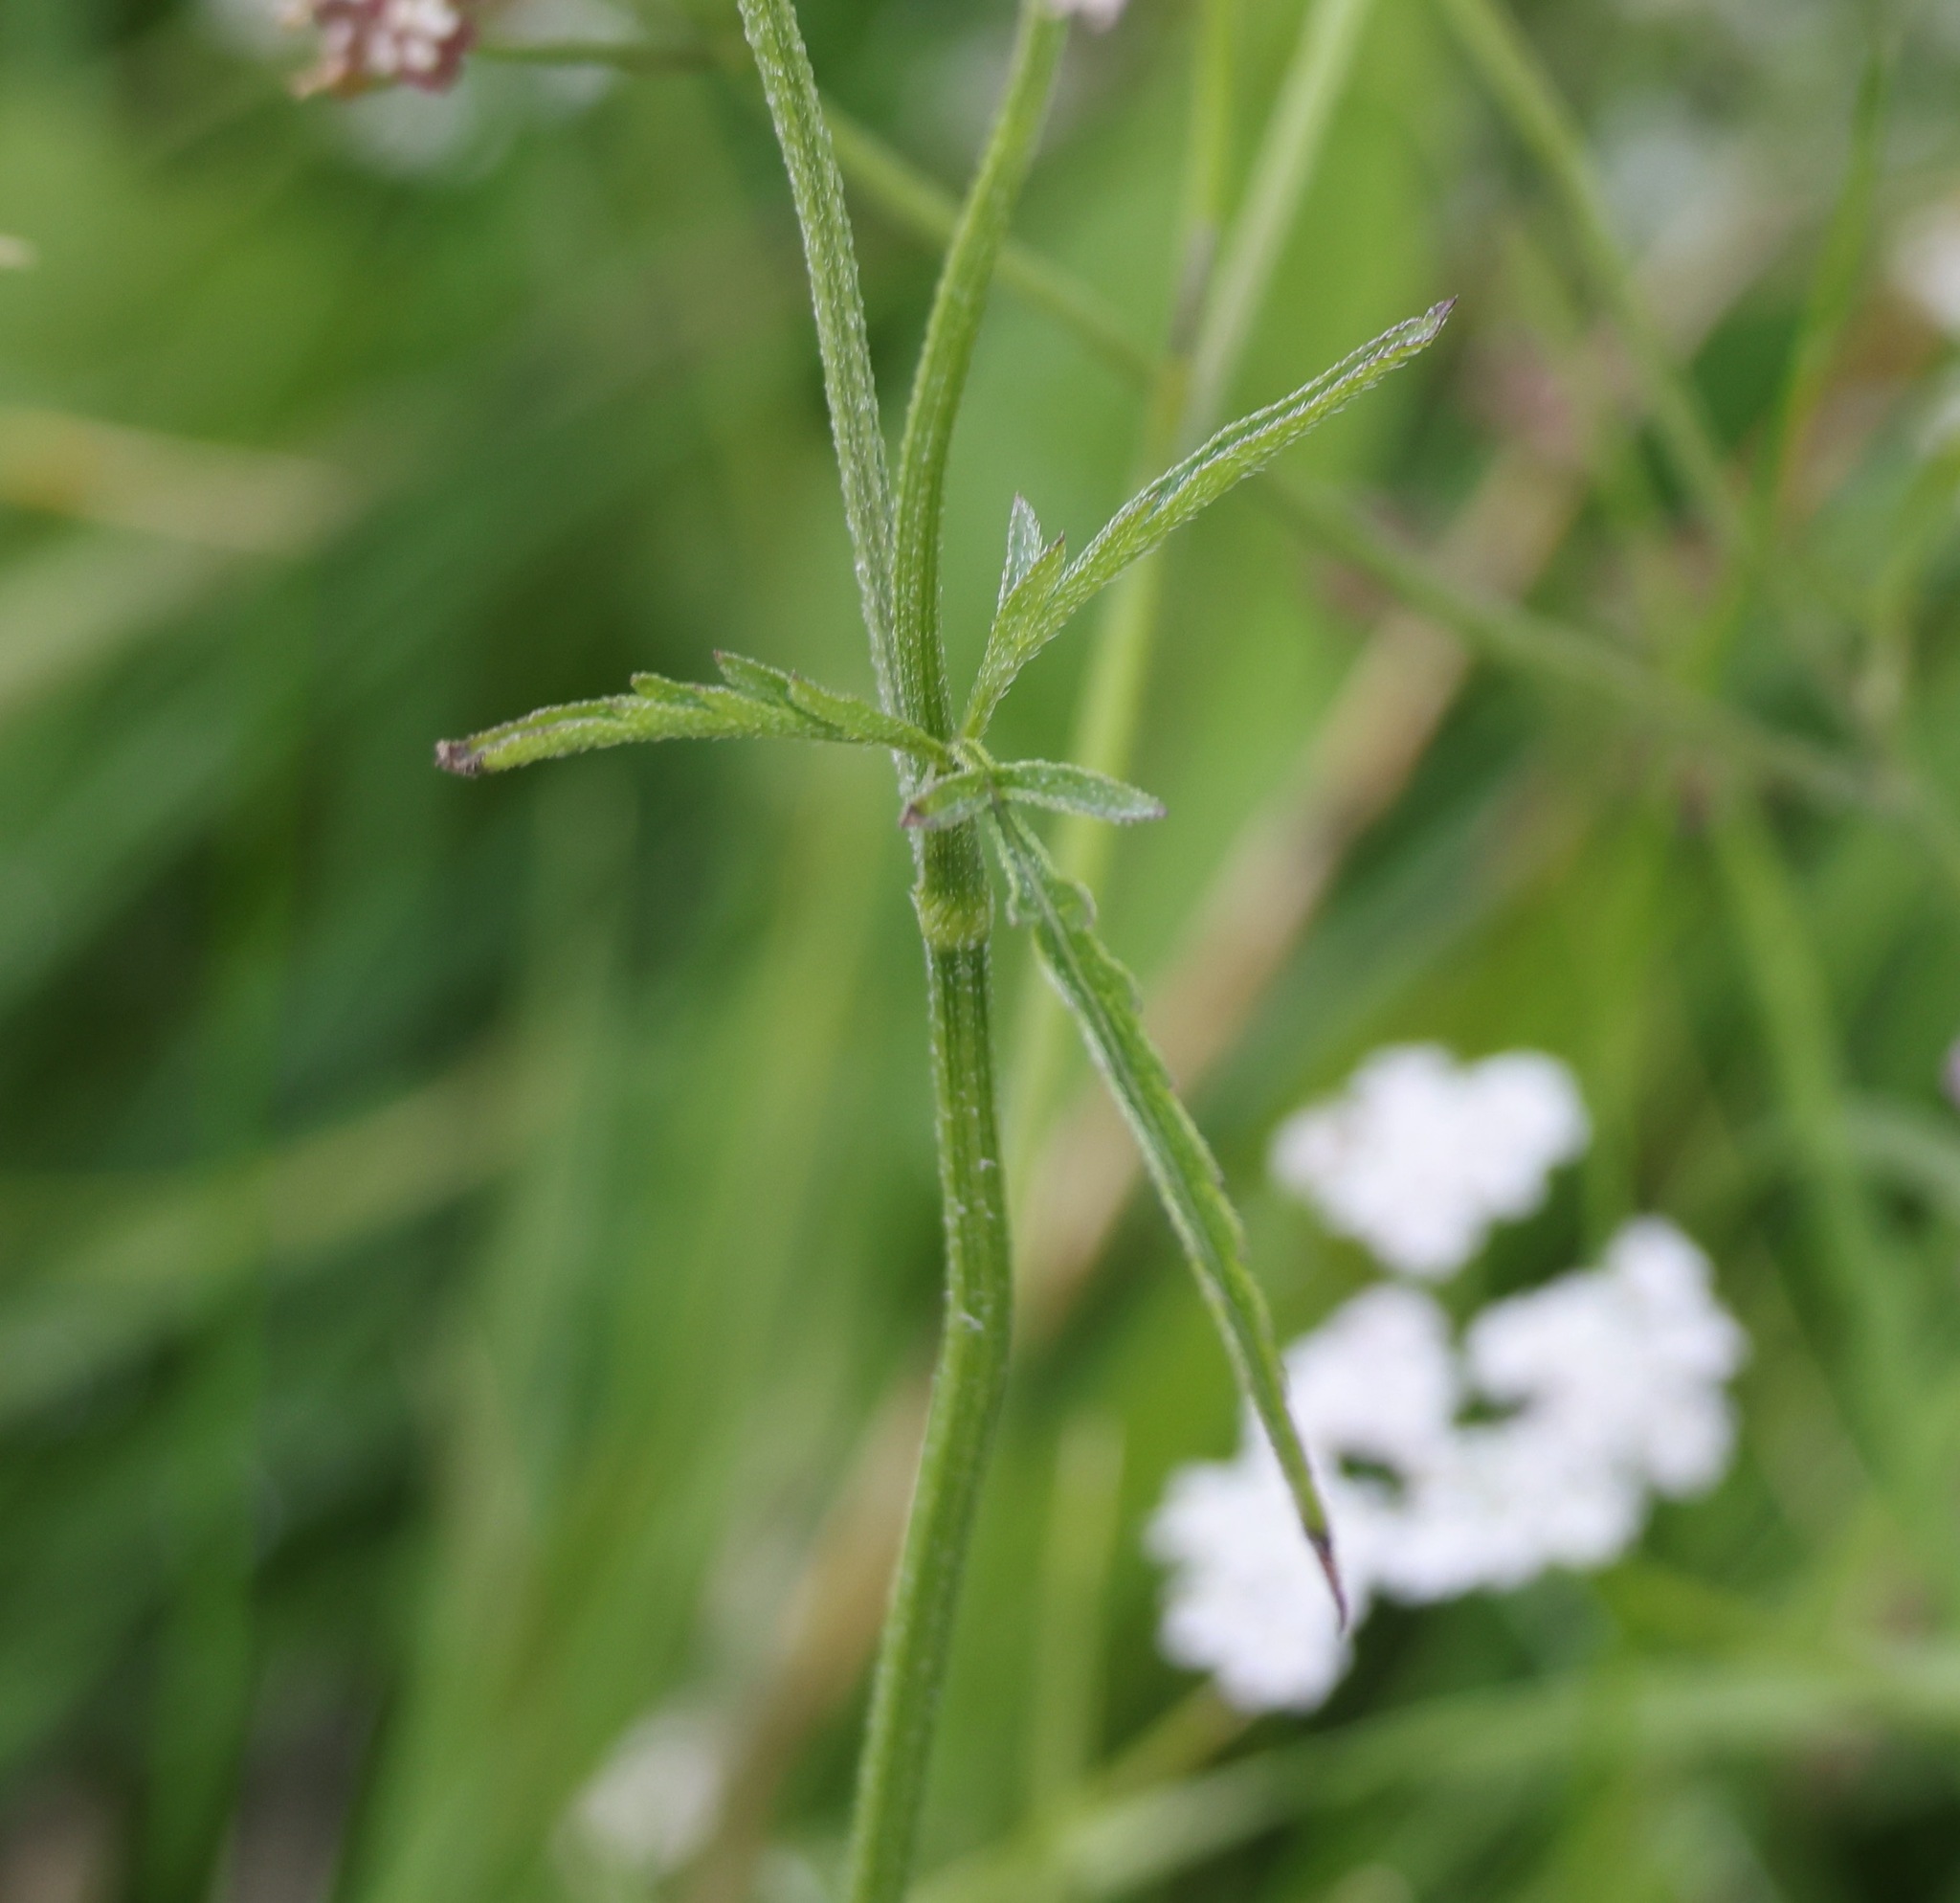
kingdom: Plantae
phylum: Tracheophyta
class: Magnoliopsida
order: Apiales
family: Apiaceae
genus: Torilis
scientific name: Torilis japonica
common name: Upright hedge-parsley
